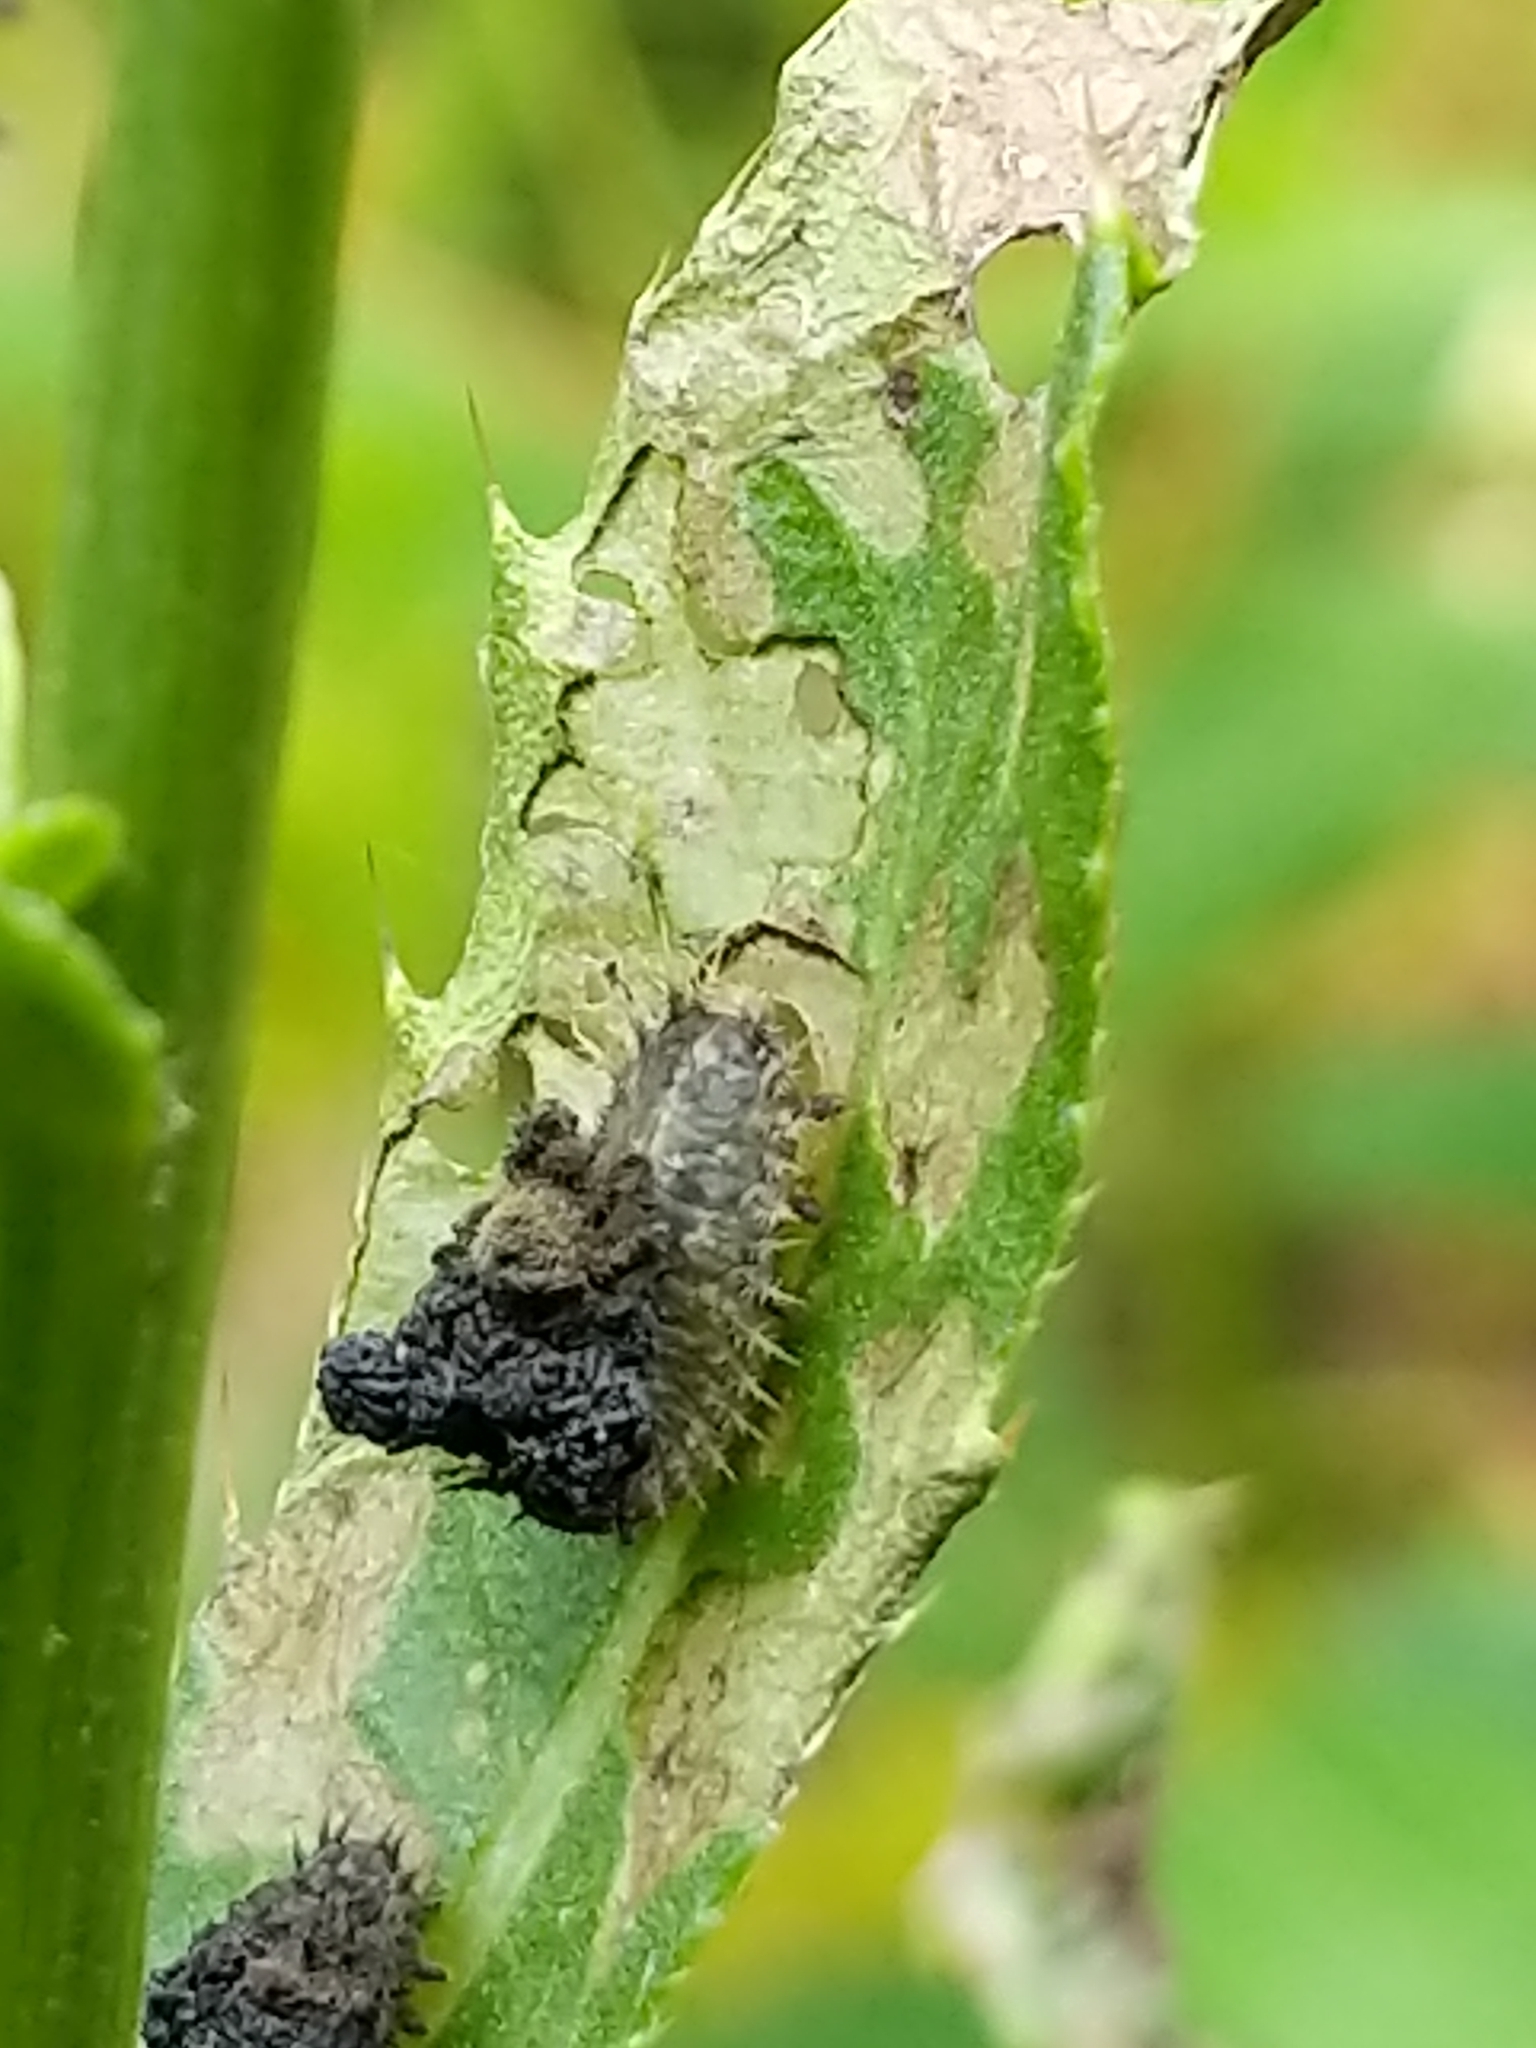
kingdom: Animalia
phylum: Arthropoda
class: Insecta
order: Coleoptera
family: Chrysomelidae
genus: Cassida
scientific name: Cassida rubiginosa
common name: Thistle tortoise beetle
